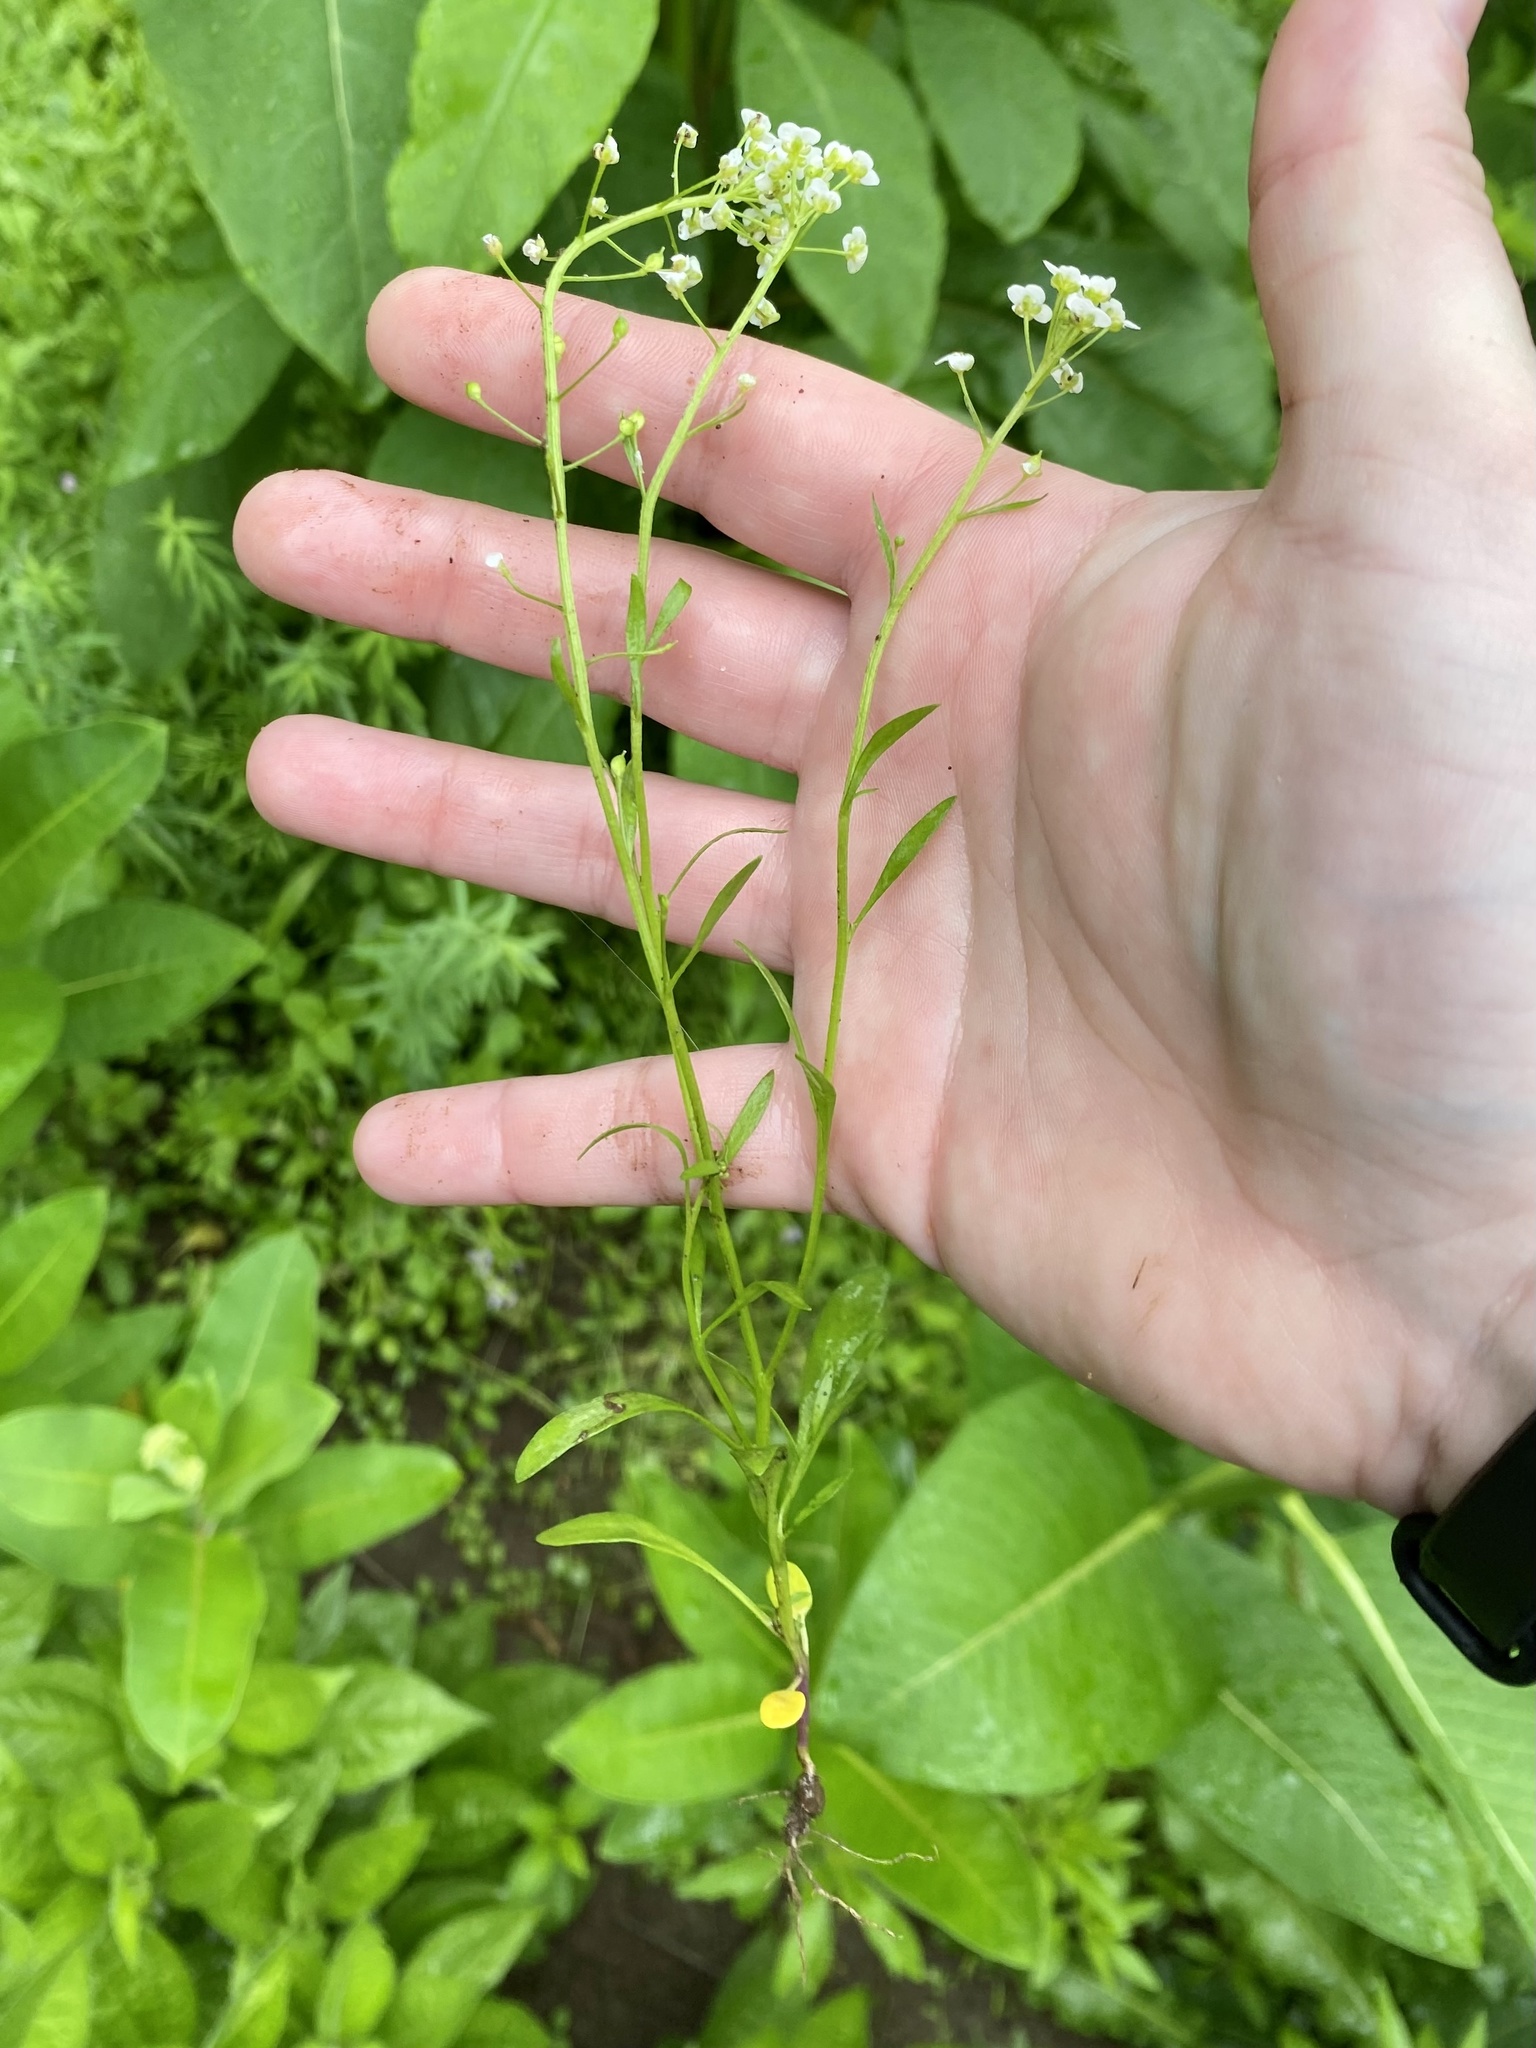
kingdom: Plantae
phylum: Tracheophyta
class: Magnoliopsida
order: Brassicales
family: Brassicaceae
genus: Lobularia
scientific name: Lobularia maritima
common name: Sweet alison
